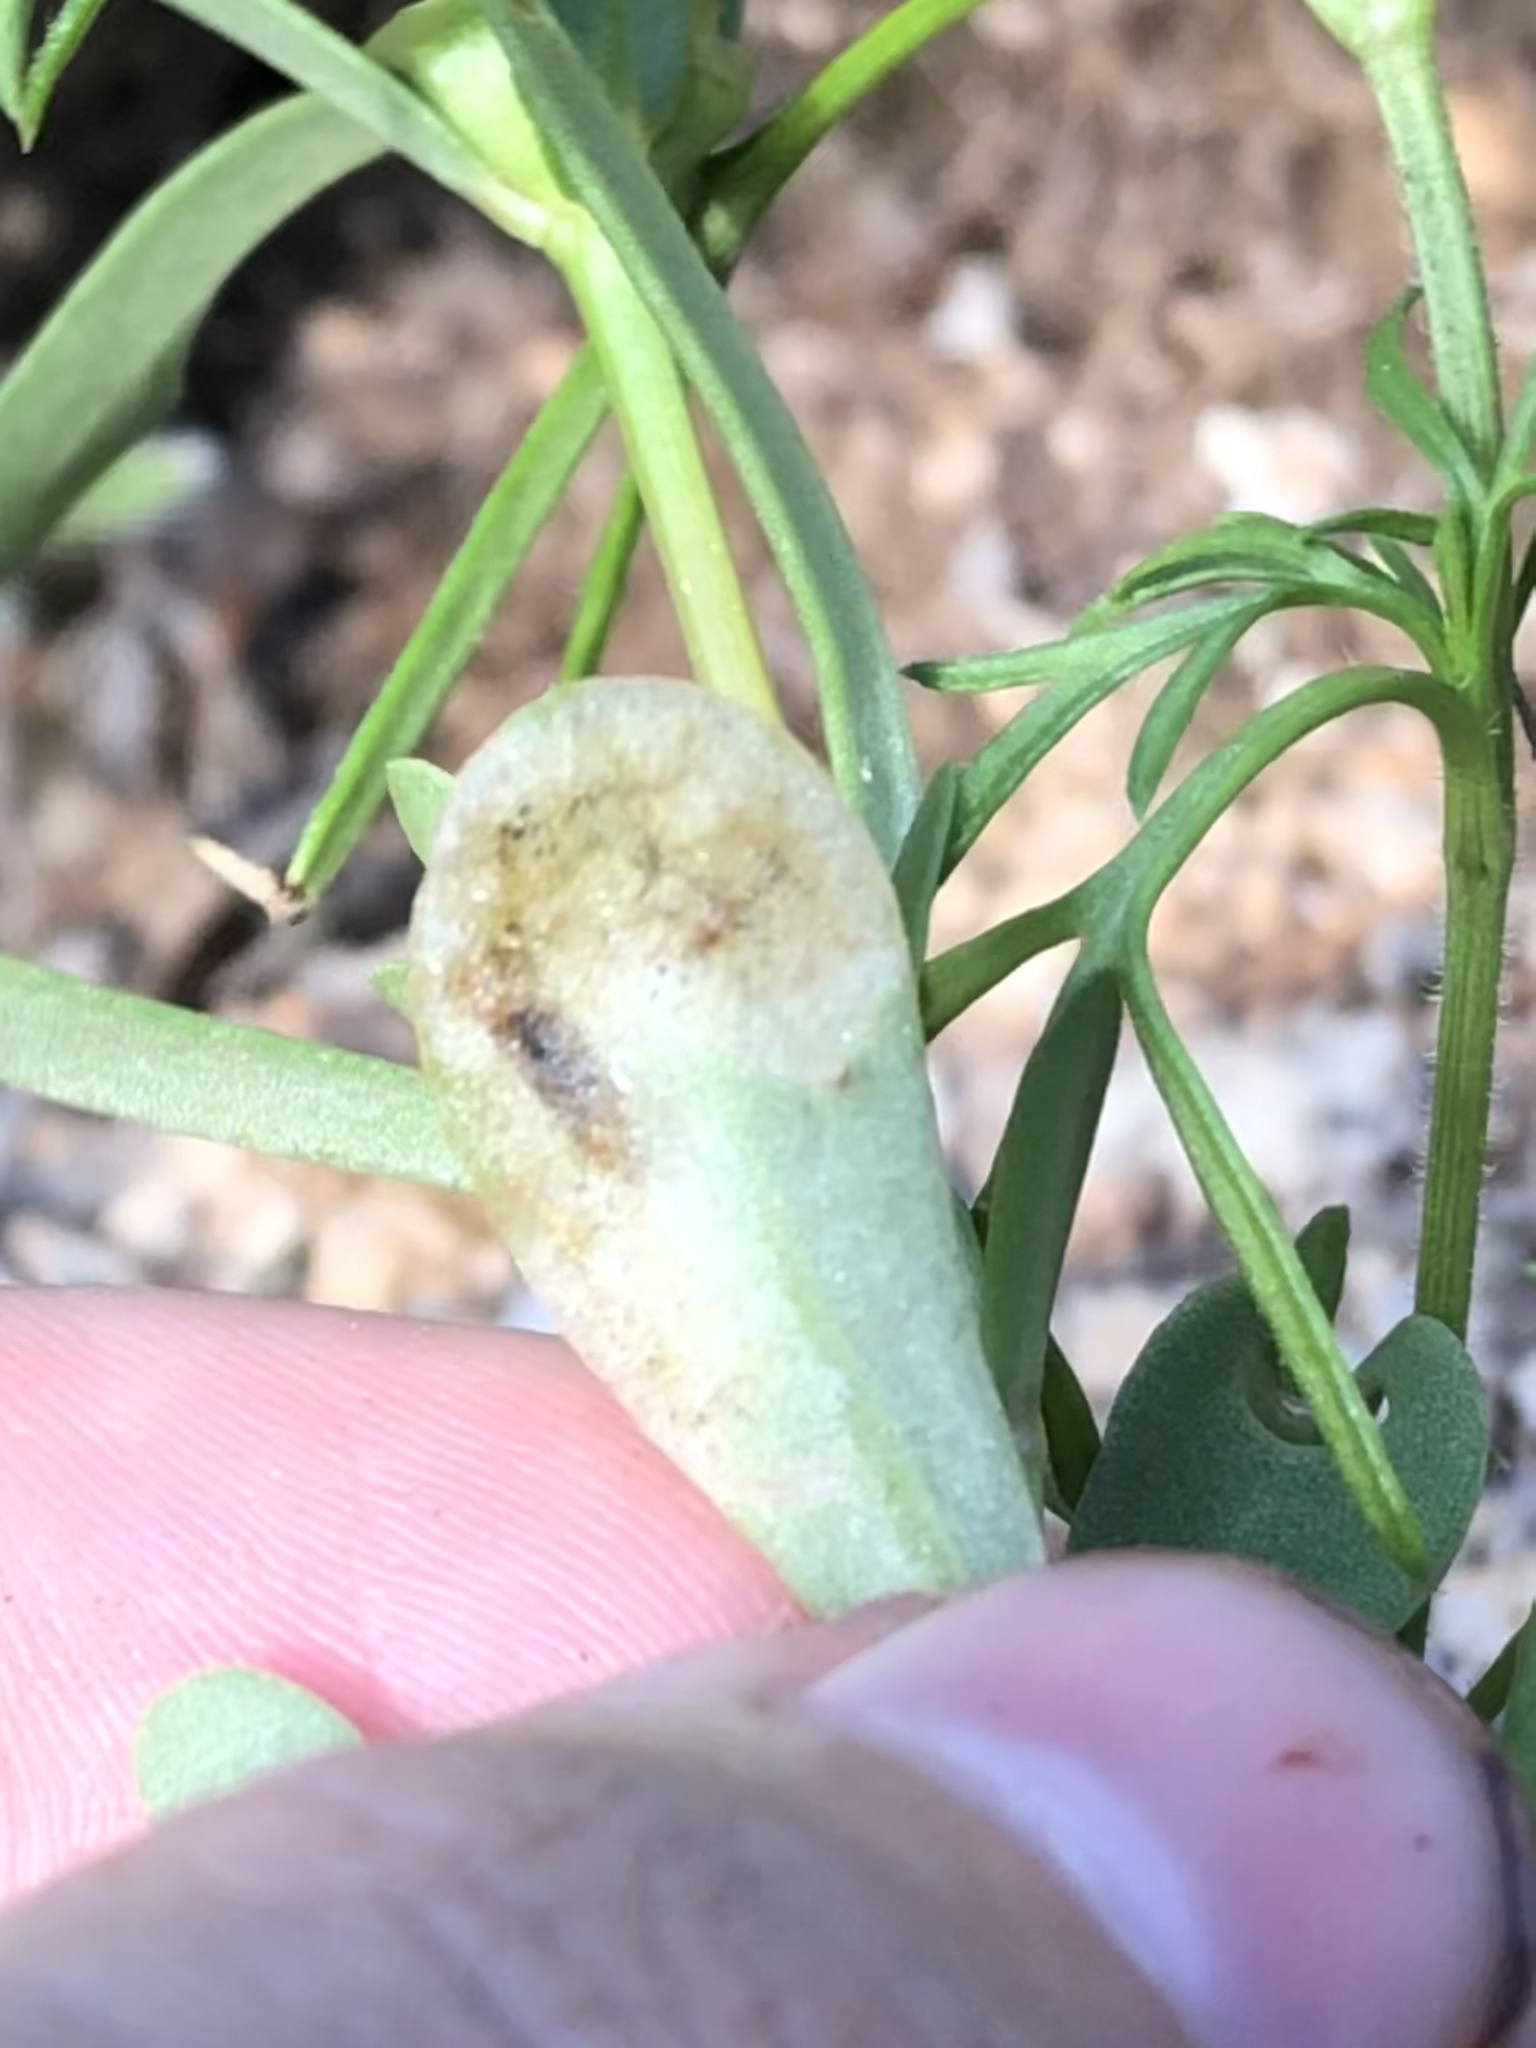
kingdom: Animalia
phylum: Arthropoda
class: Insecta
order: Diptera
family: Anthomyiidae
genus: Pegomya
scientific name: Pegomya rufescens
